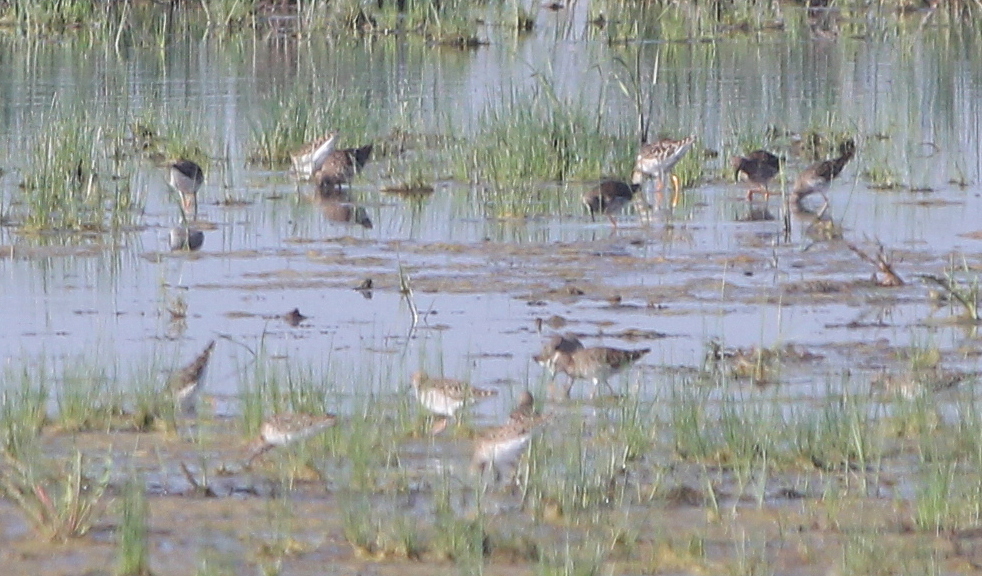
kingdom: Animalia
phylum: Chordata
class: Aves
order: Charadriiformes
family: Scolopacidae
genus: Calidris
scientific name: Calidris pugnax
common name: Ruff
